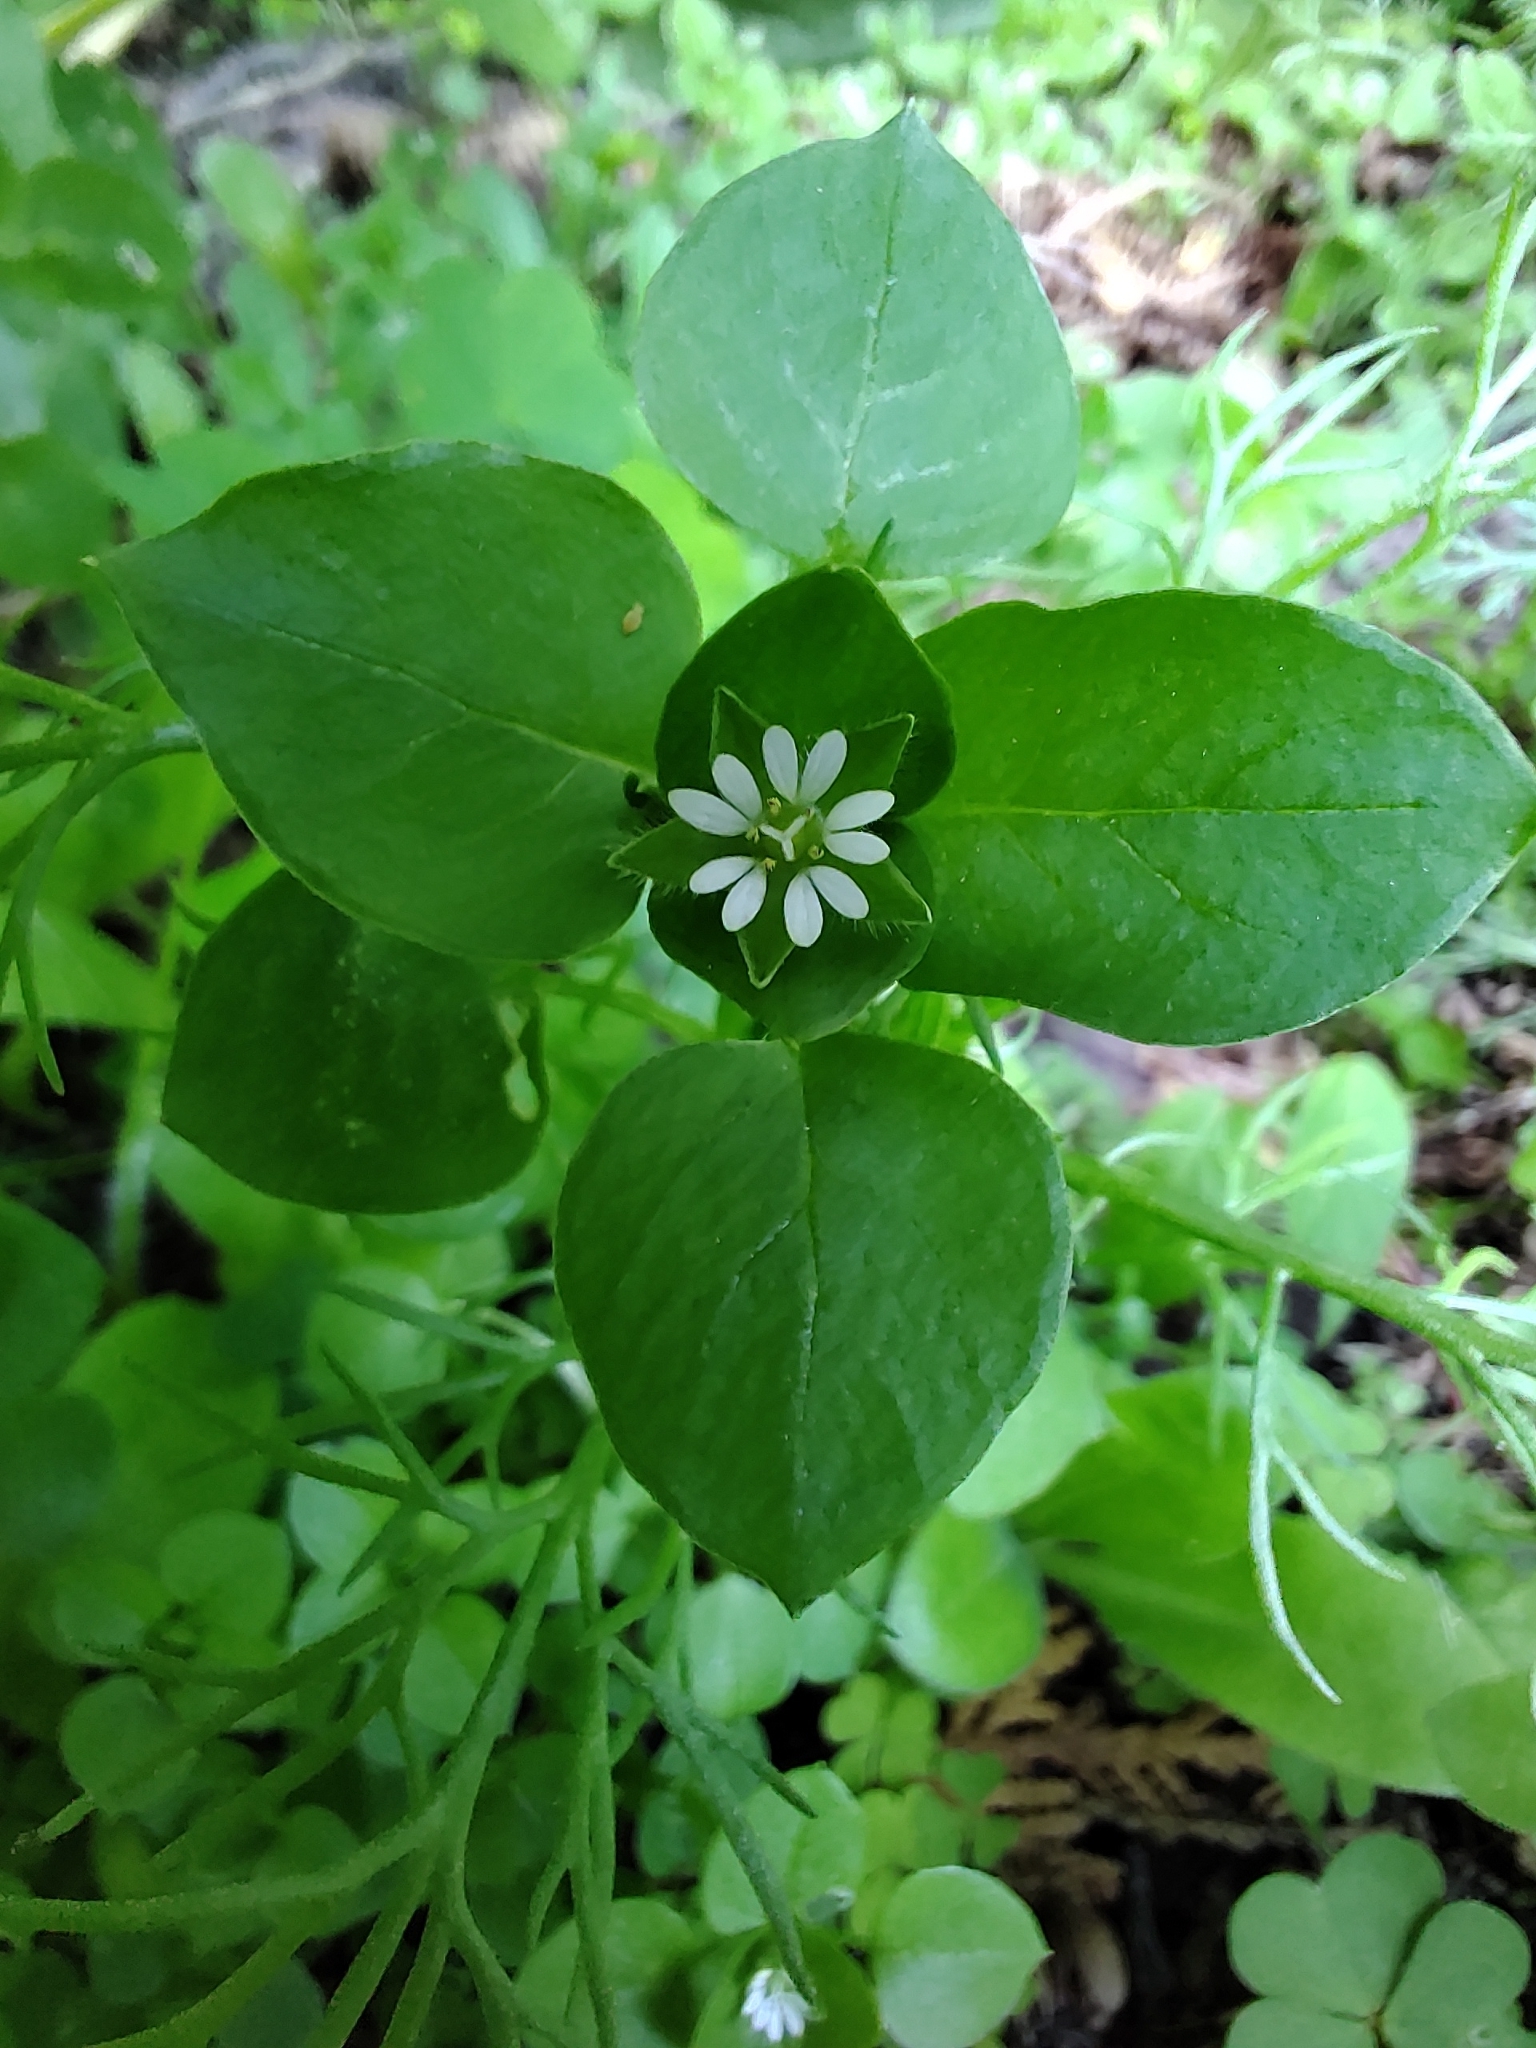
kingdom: Plantae
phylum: Tracheophyta
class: Magnoliopsida
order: Caryophyllales
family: Caryophyllaceae
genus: Stellaria
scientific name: Stellaria media
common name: Common chickweed
